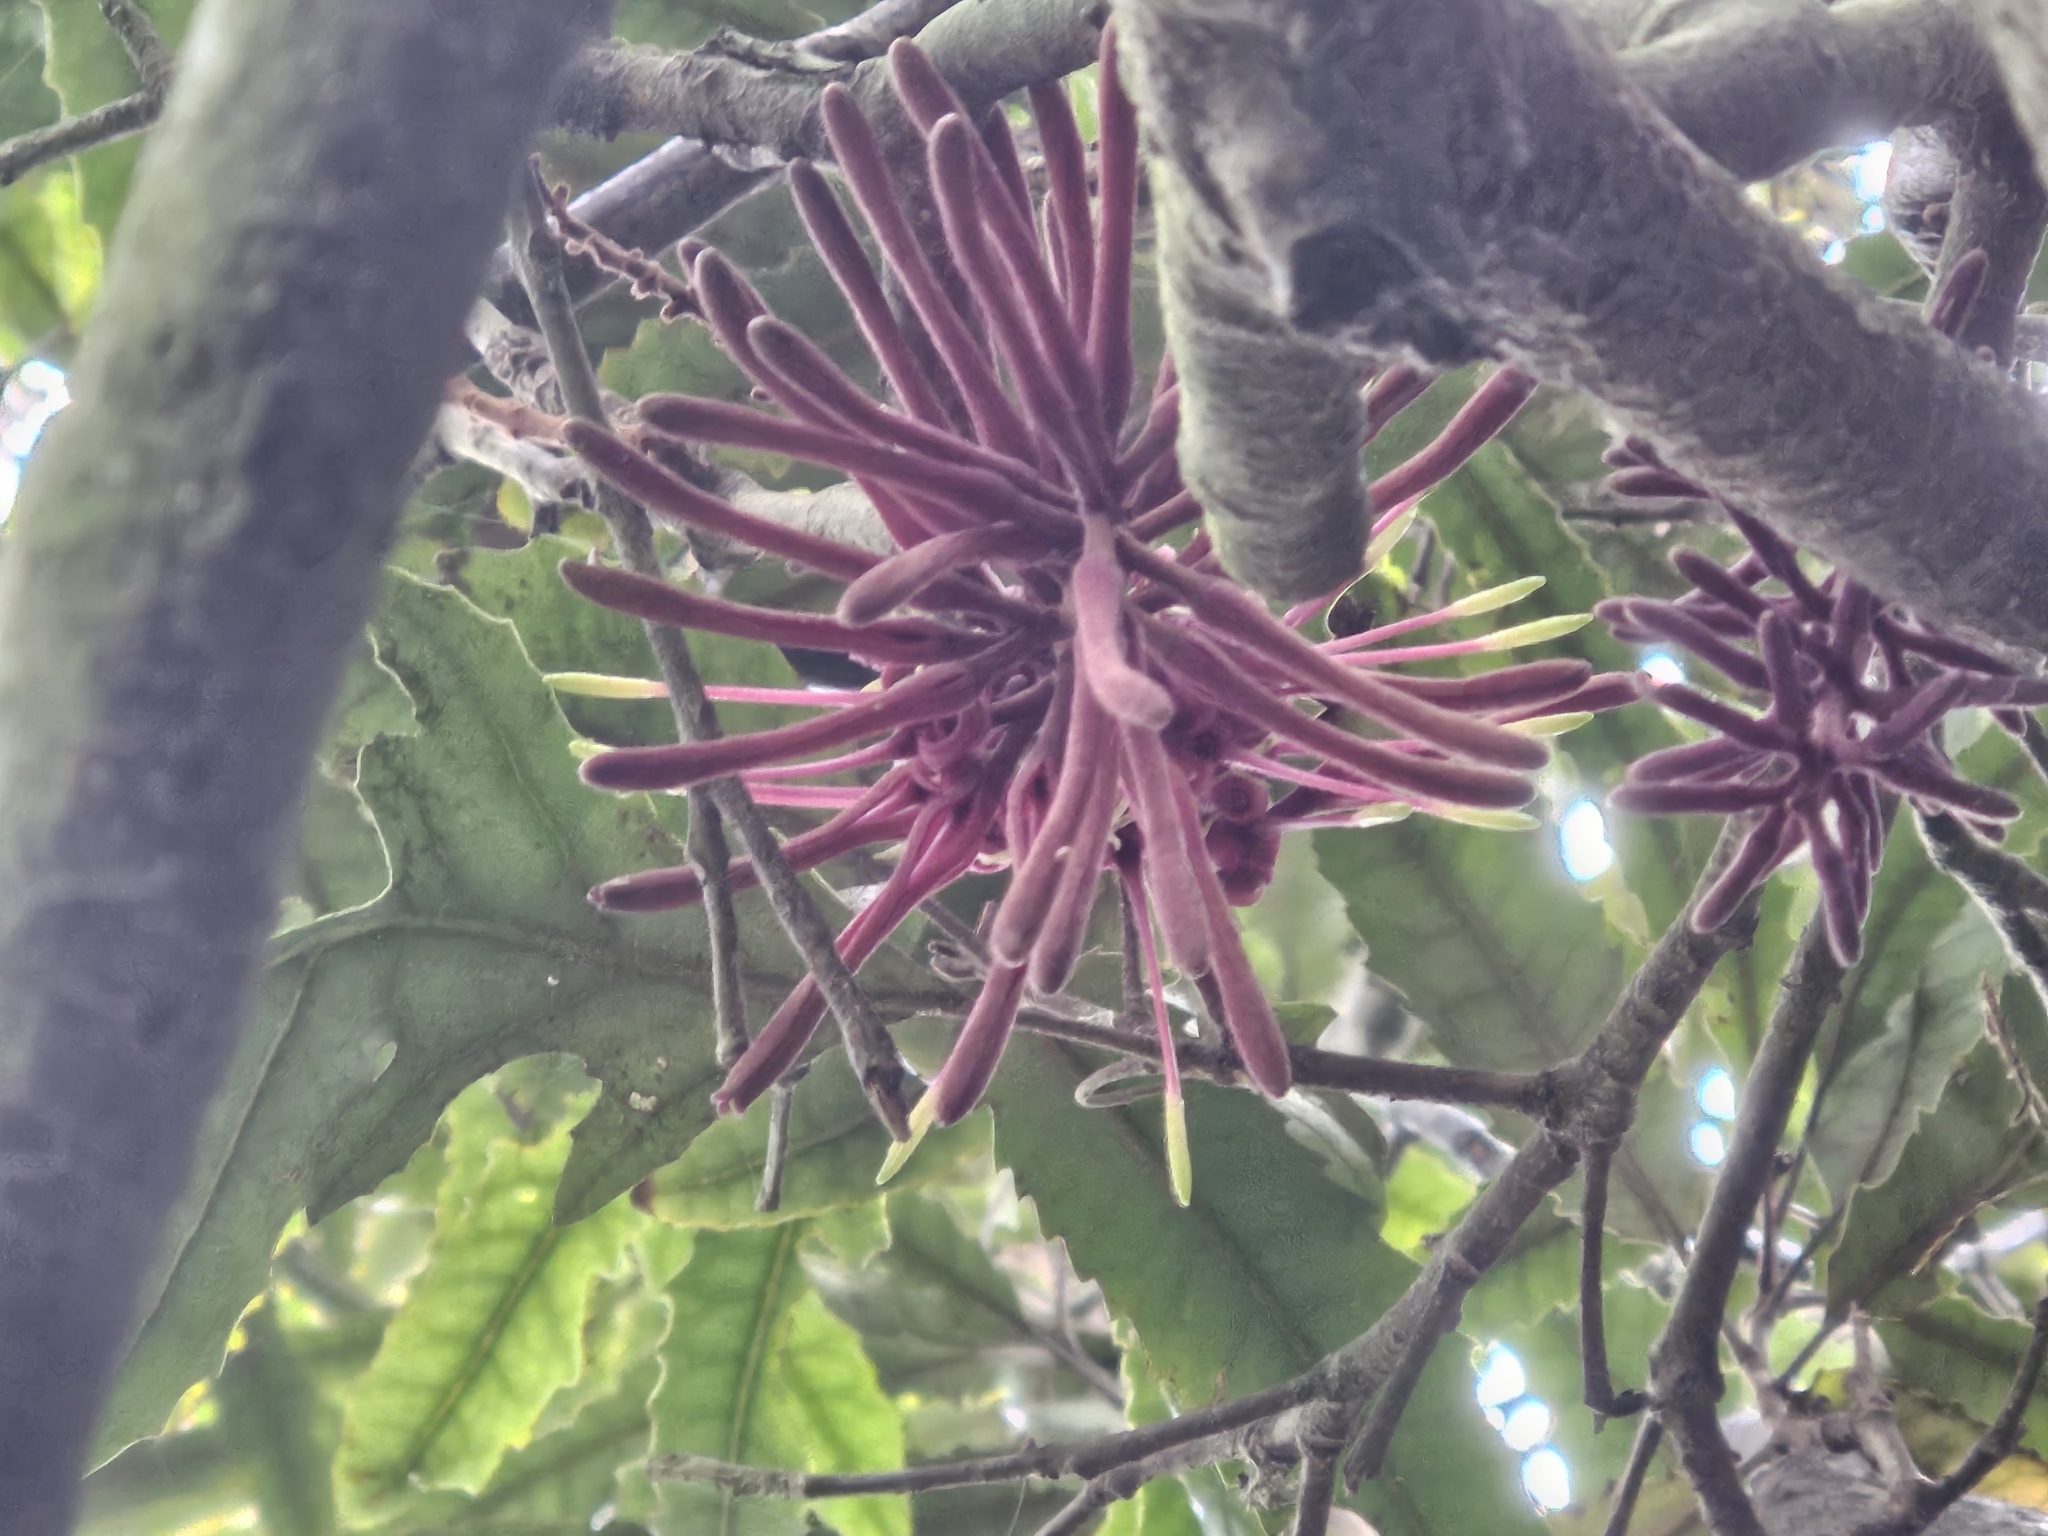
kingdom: Plantae
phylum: Tracheophyta
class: Magnoliopsida
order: Proteales
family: Proteaceae
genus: Knightia
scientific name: Knightia excelsa
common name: New zealand-honeysuckle
